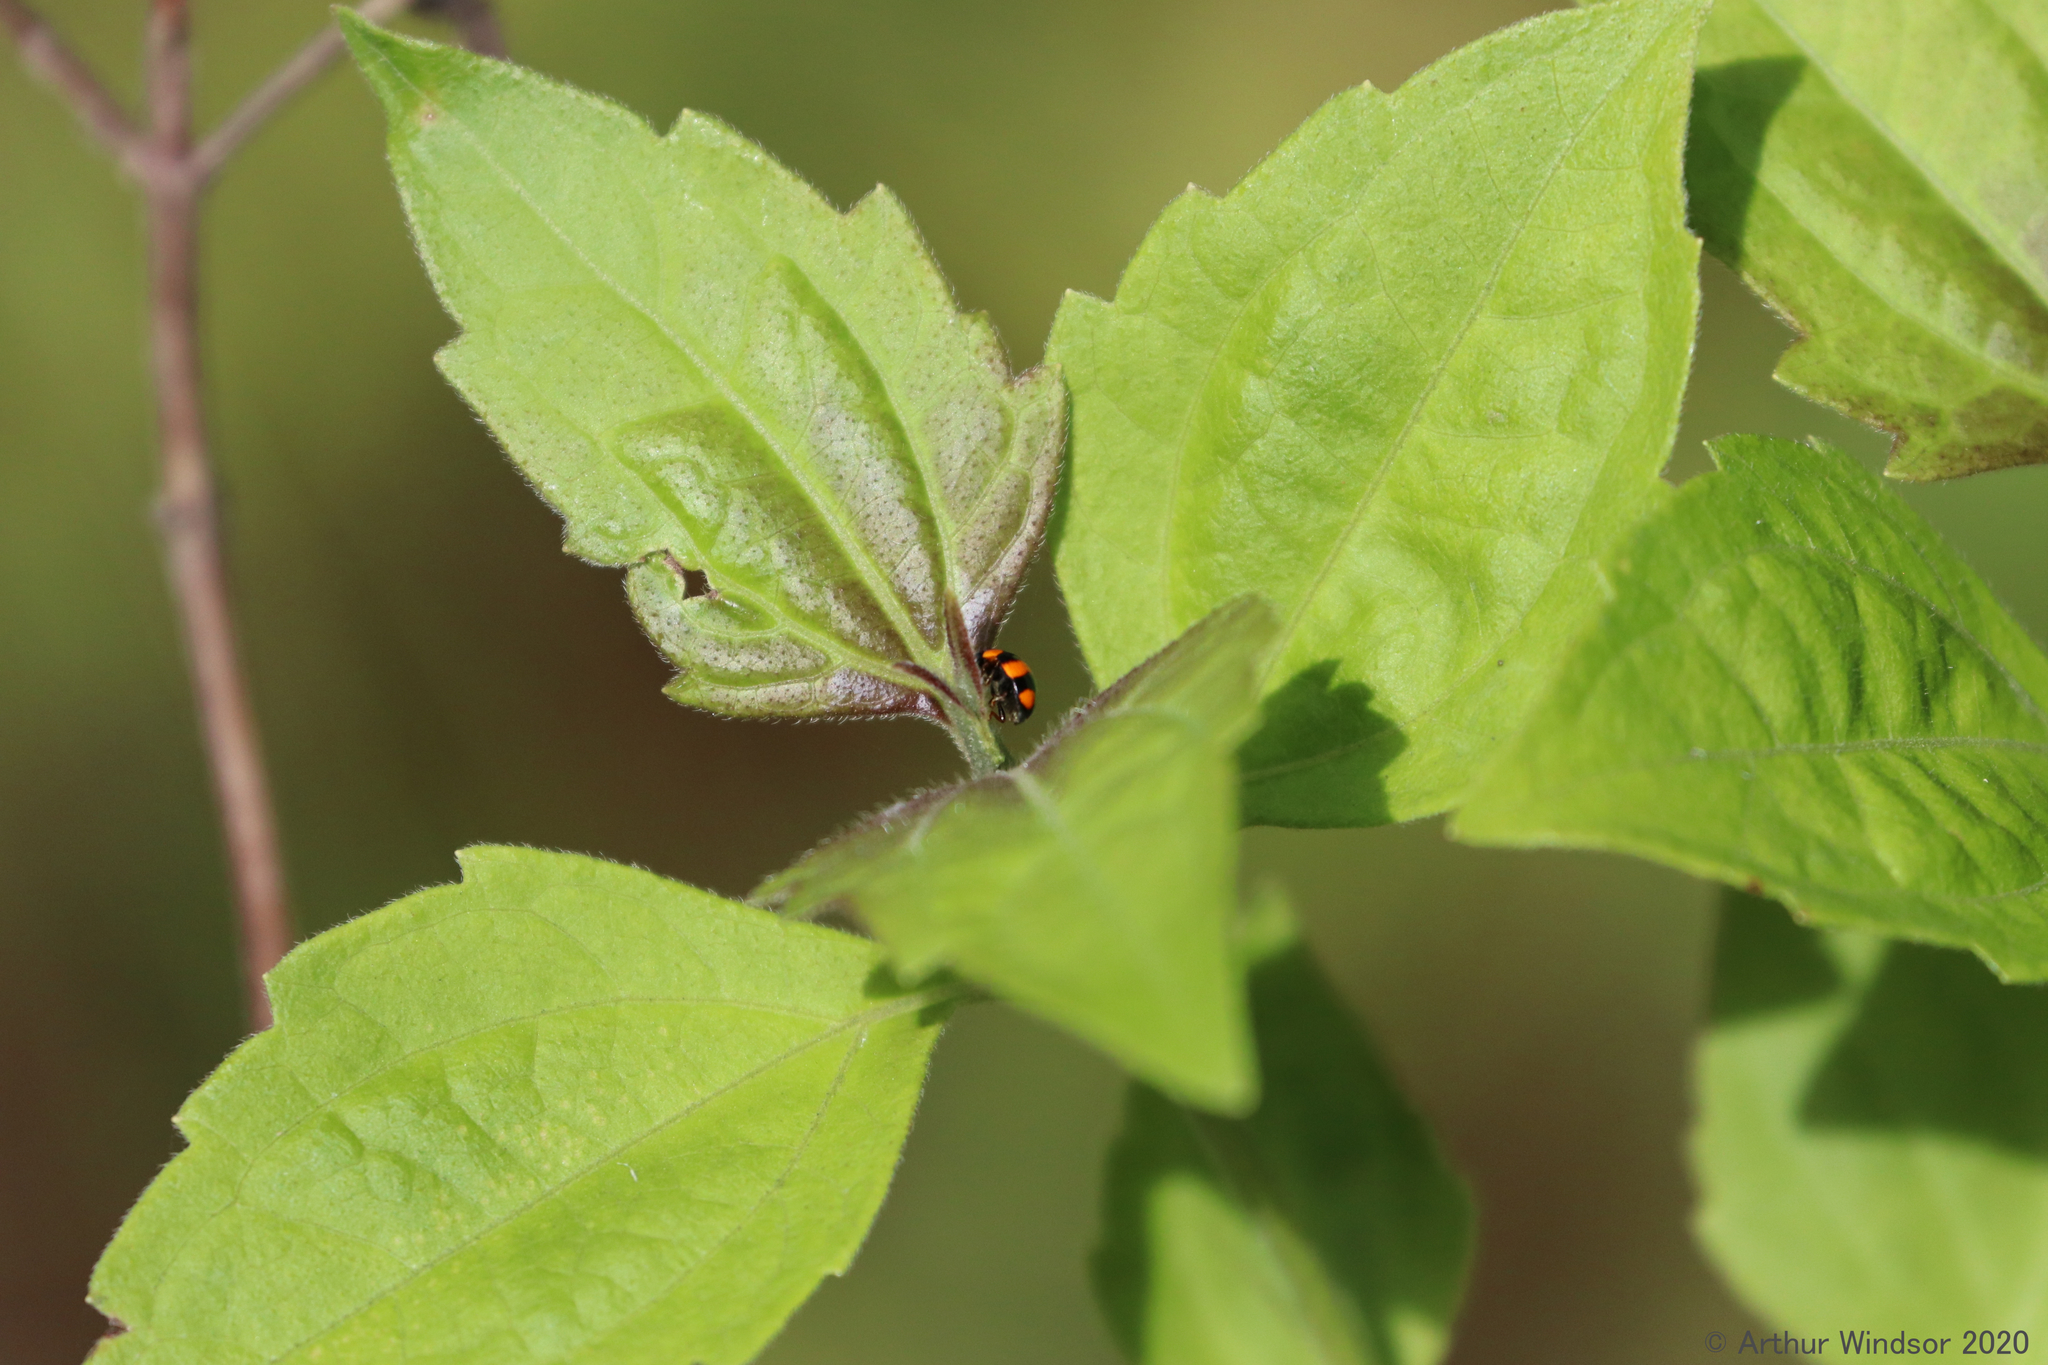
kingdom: Animalia
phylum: Arthropoda
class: Insecta
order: Coleoptera
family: Coccinellidae
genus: Brachiacantha
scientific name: Brachiacantha dentipes
